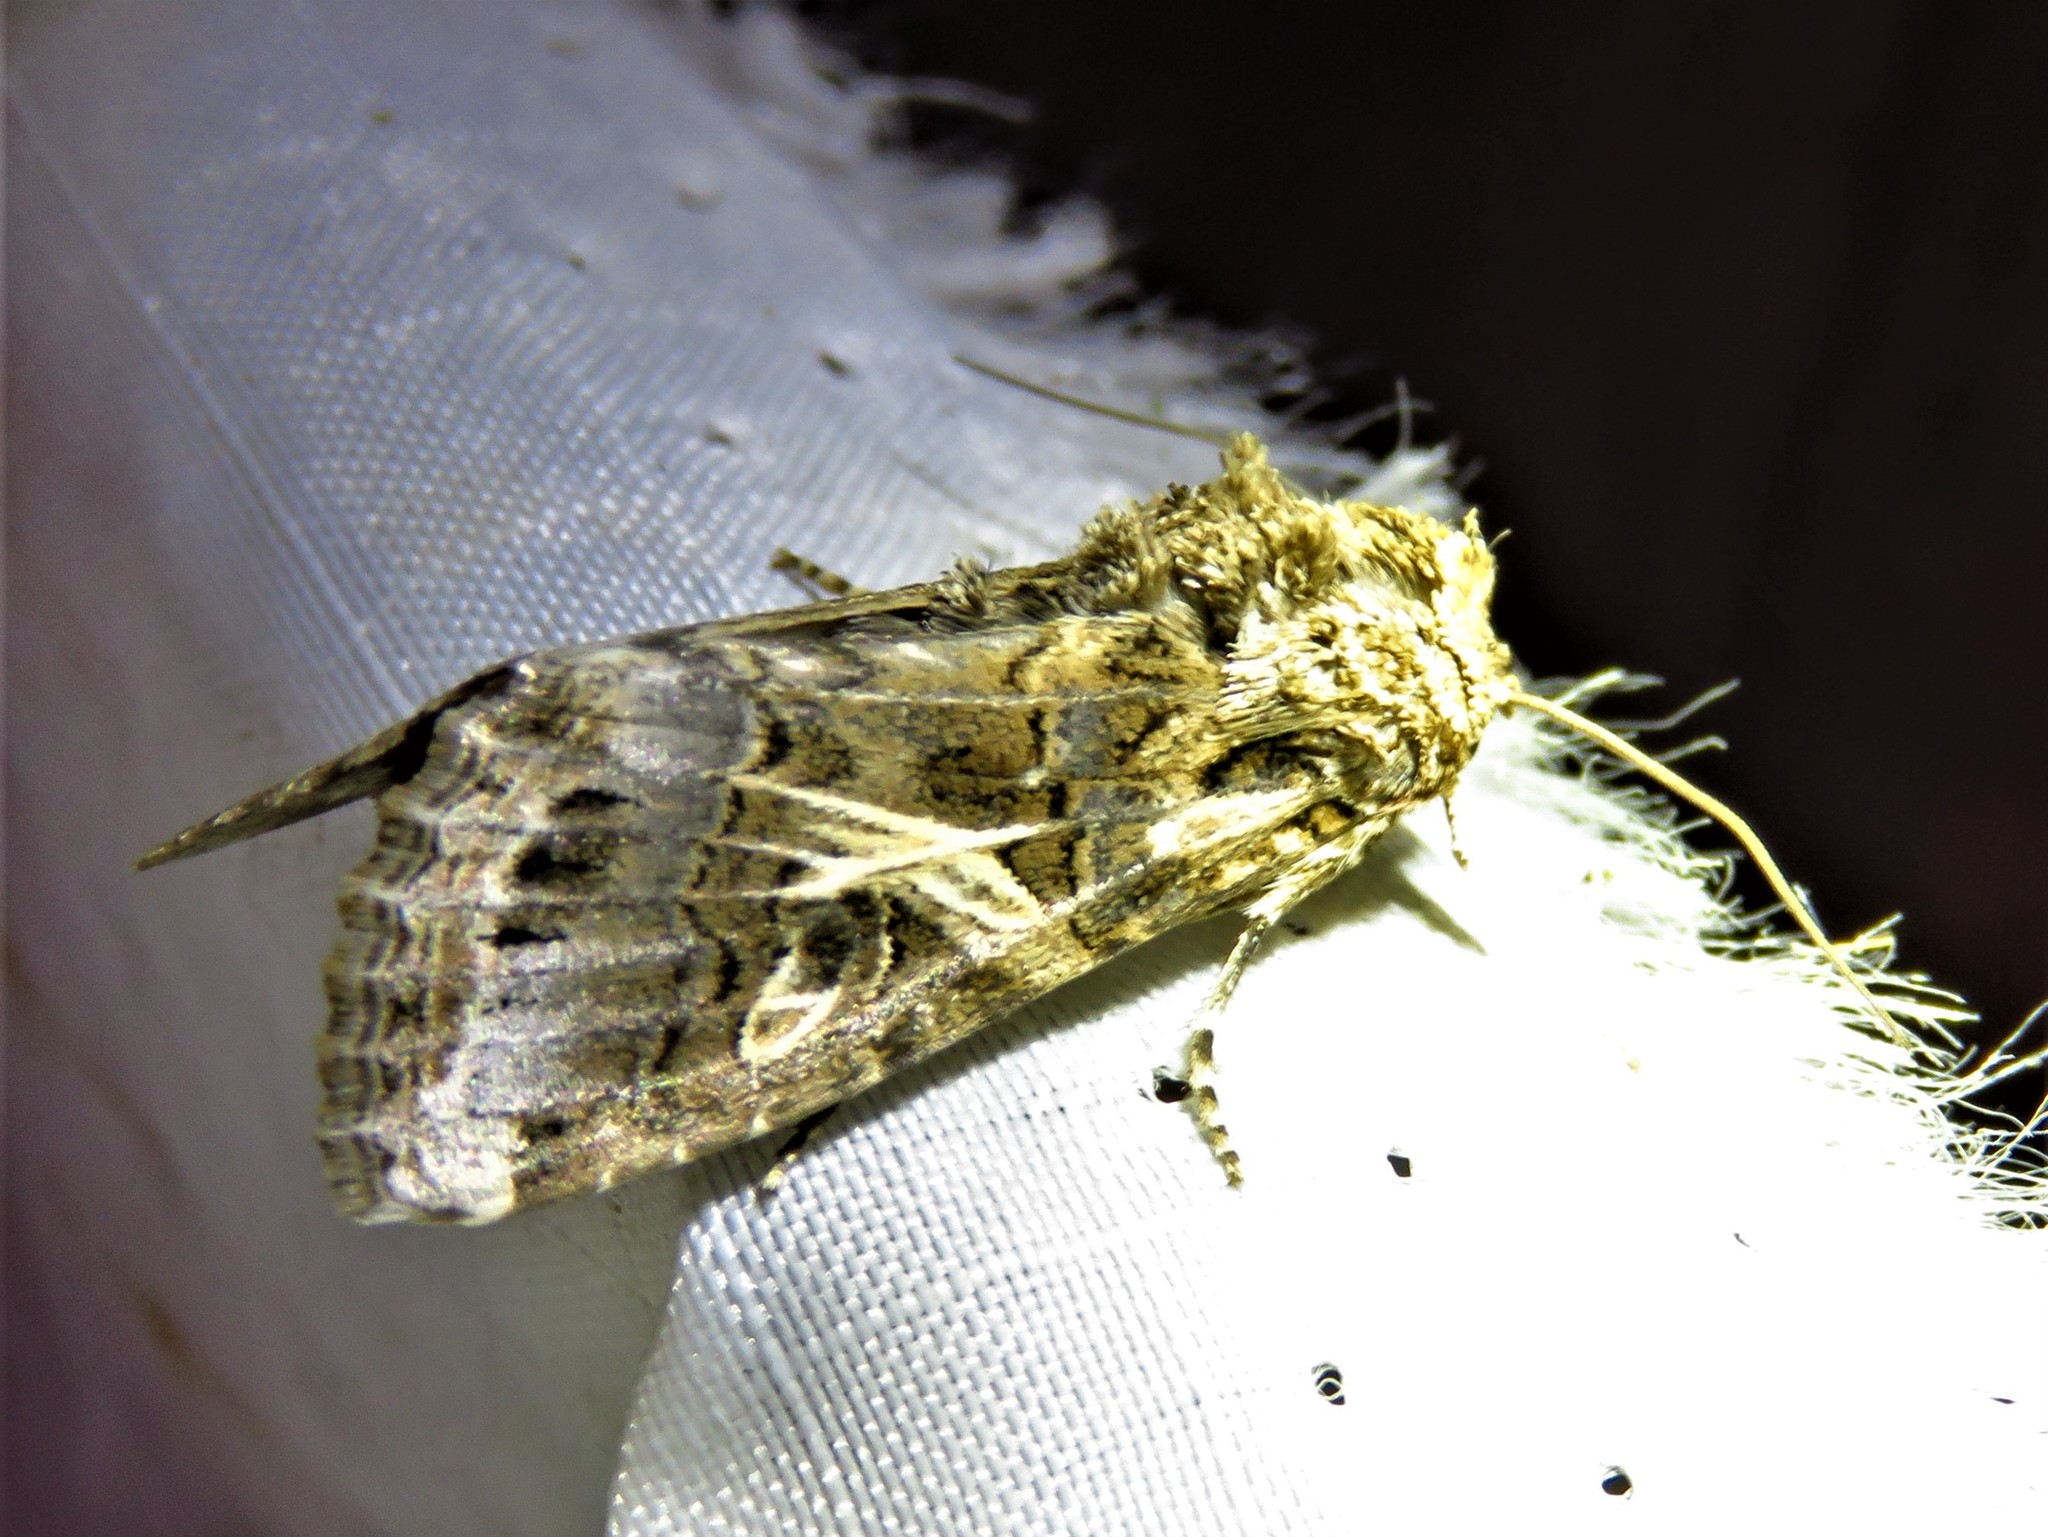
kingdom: Animalia
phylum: Arthropoda
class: Insecta
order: Lepidoptera
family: Noctuidae
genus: Spodoptera
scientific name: Spodoptera ornithogalli
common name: Yellow-striped armyworm
